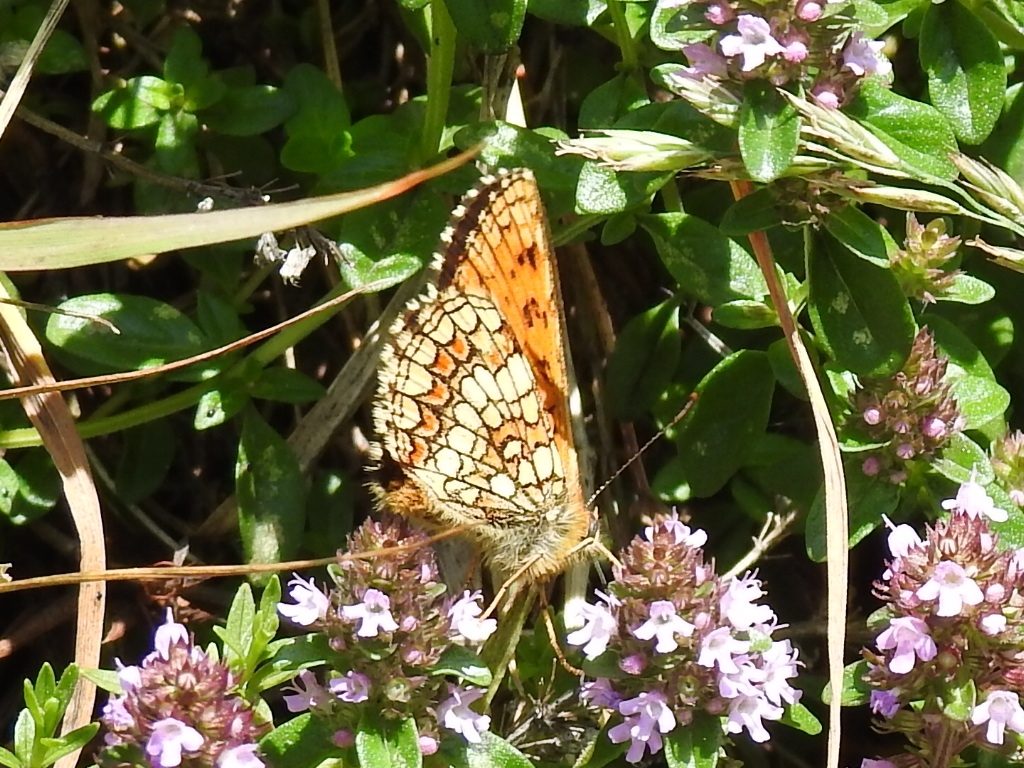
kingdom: Animalia
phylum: Arthropoda
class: Insecta
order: Lepidoptera
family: Nymphalidae
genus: Mellicta
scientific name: Mellicta athalia
